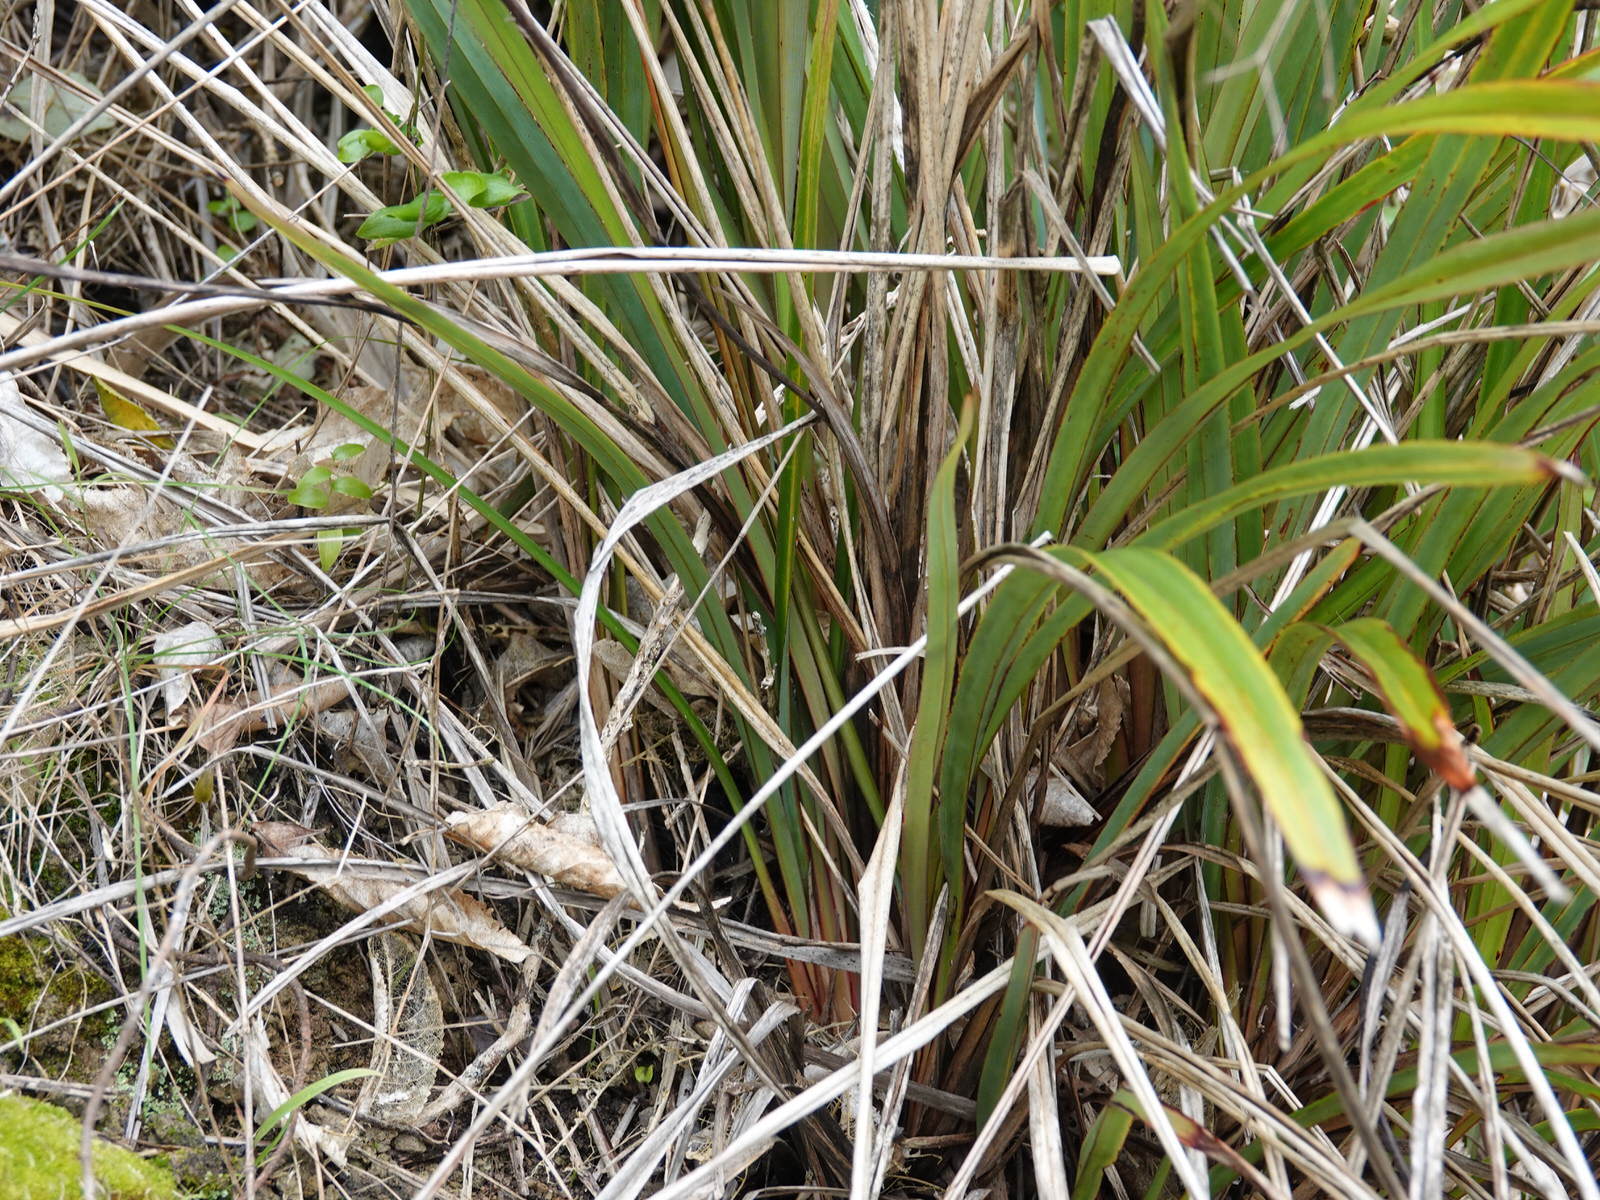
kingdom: Plantae
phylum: Tracheophyta
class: Liliopsida
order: Asparagales
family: Asphodelaceae
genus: Dianella
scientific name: Dianella nigra
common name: New zealand-blueberry
